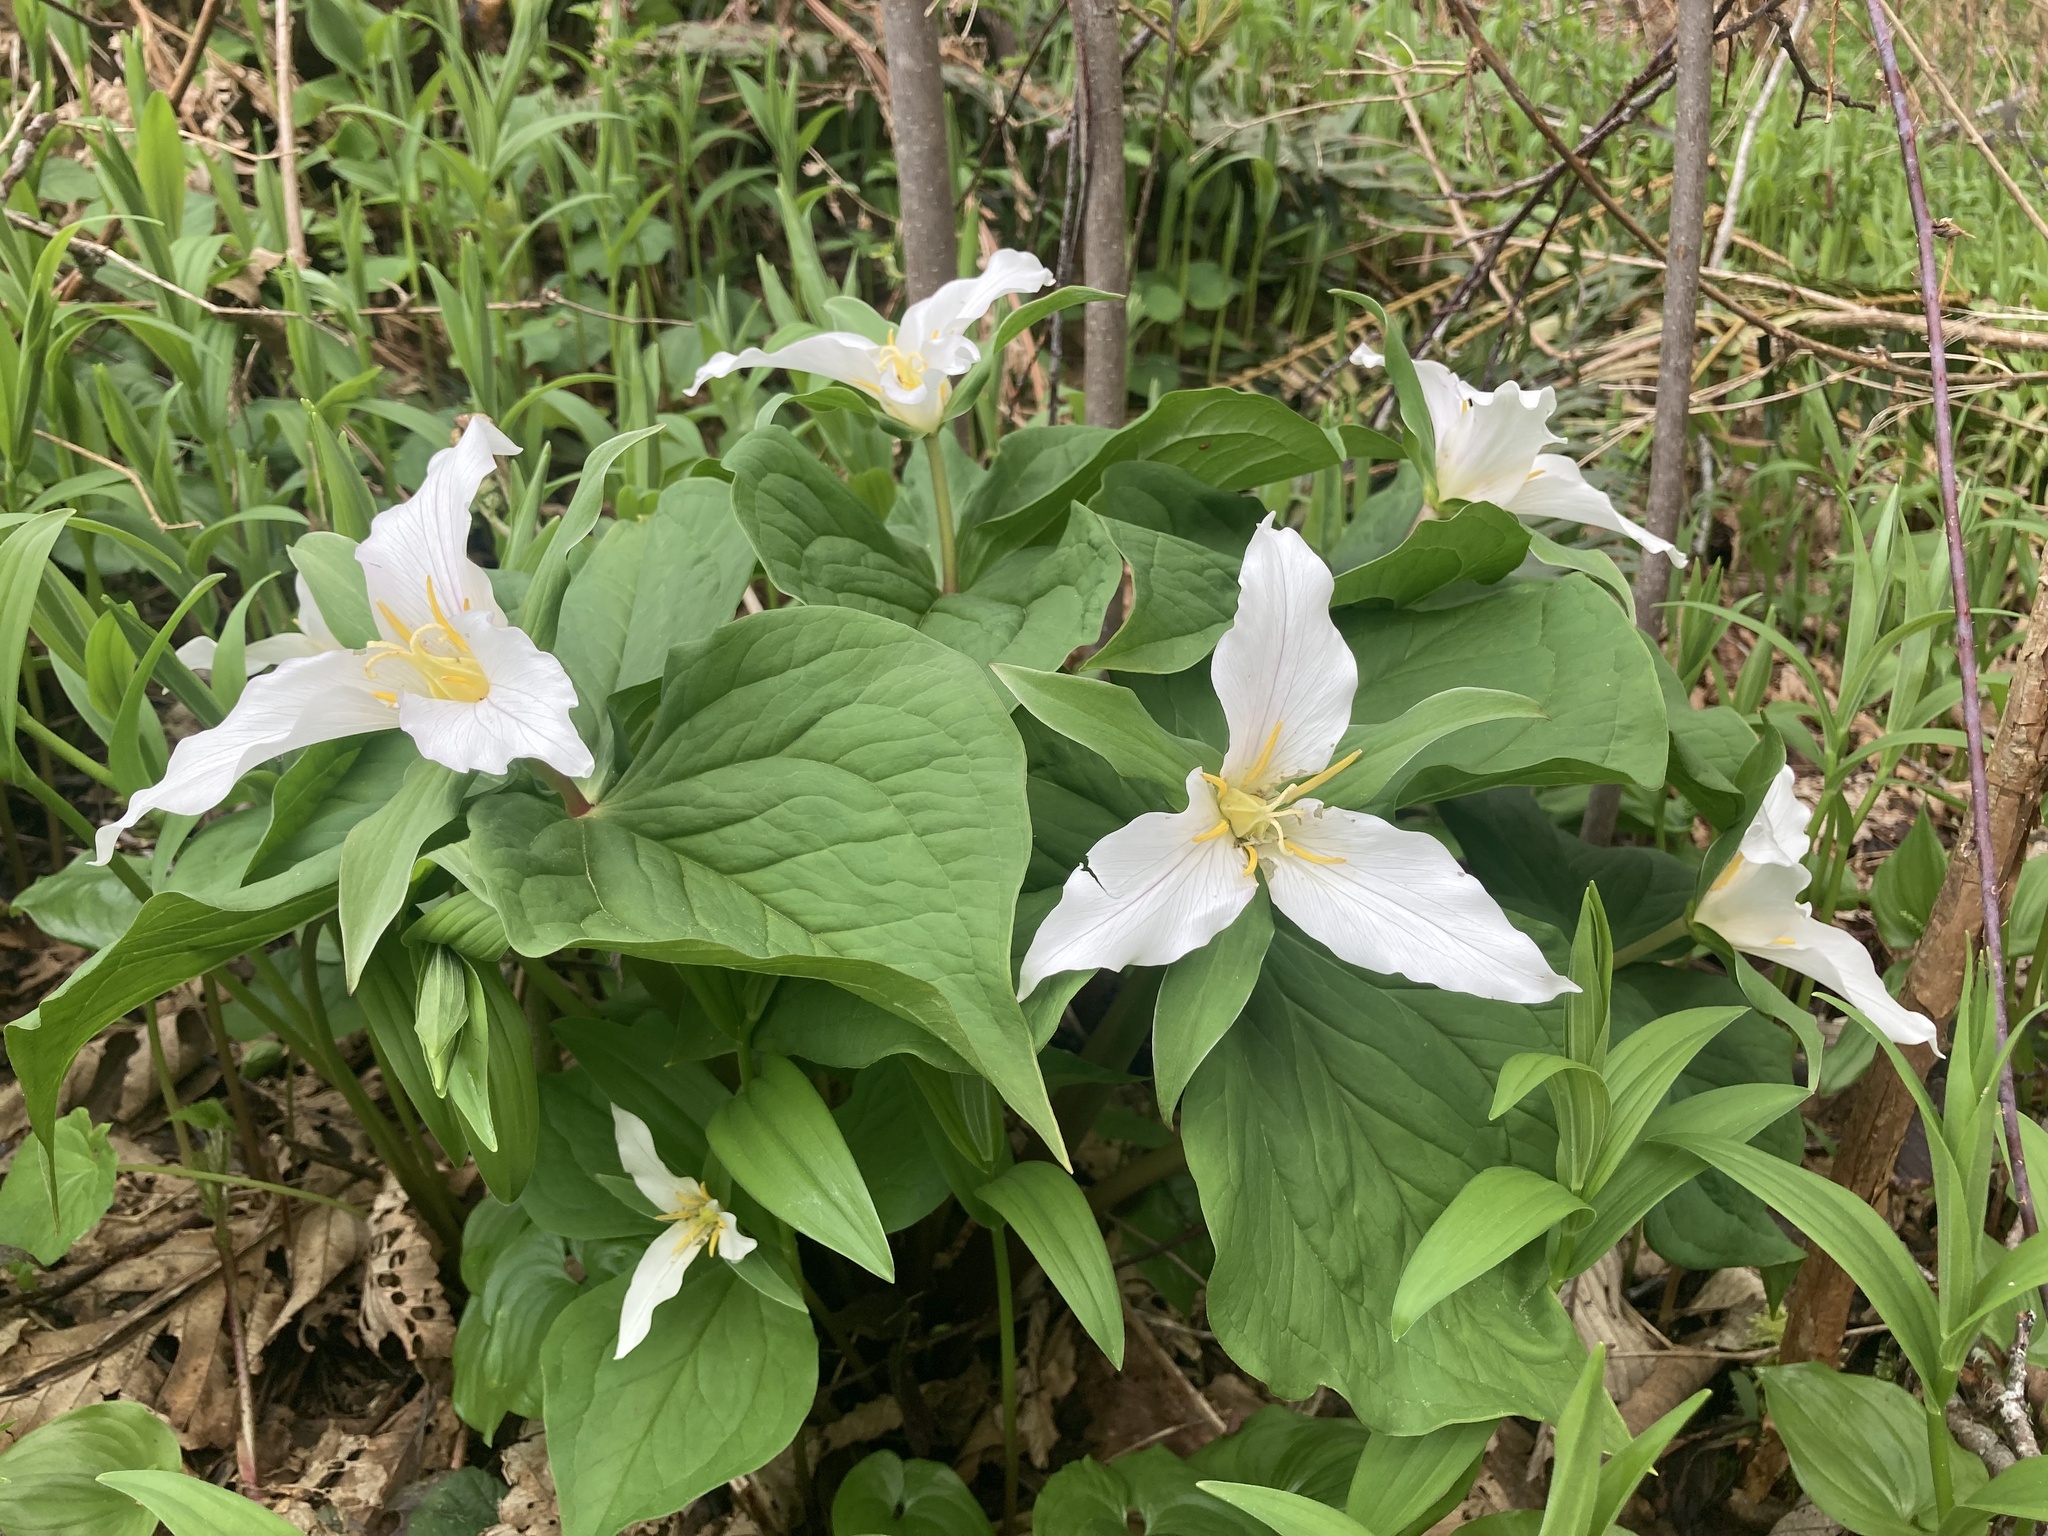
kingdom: Plantae
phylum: Tracheophyta
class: Liliopsida
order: Liliales
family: Melanthiaceae
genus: Trillium
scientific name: Trillium ovatum
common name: Pacific trillium
